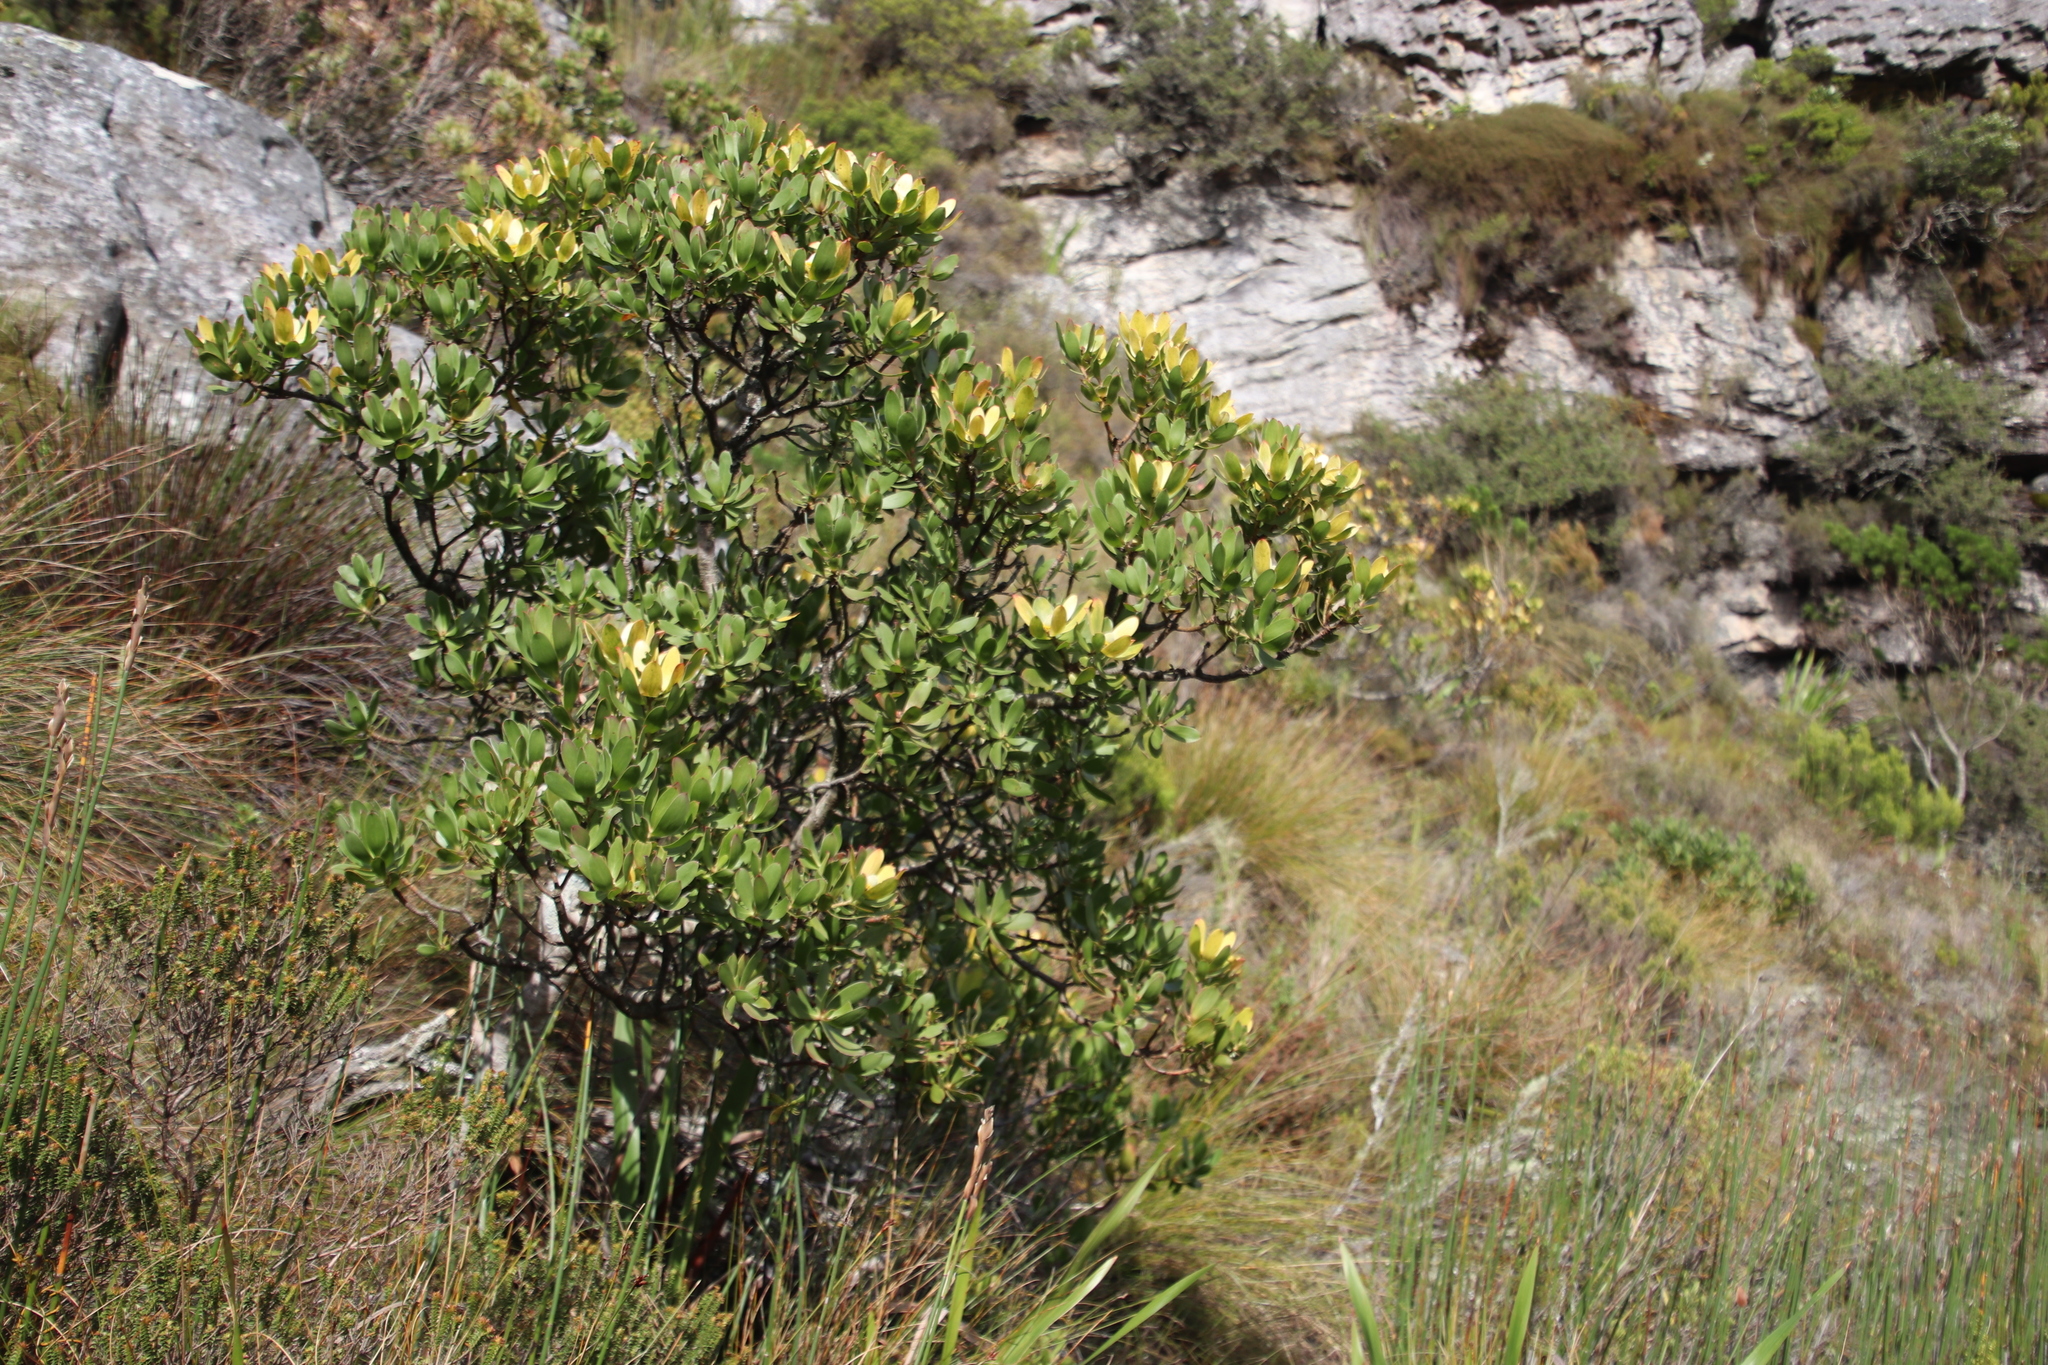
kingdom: Plantae
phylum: Tracheophyta
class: Magnoliopsida
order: Proteales
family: Proteaceae
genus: Leucadendron
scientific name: Leucadendron strobilinum
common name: Mountain rose
